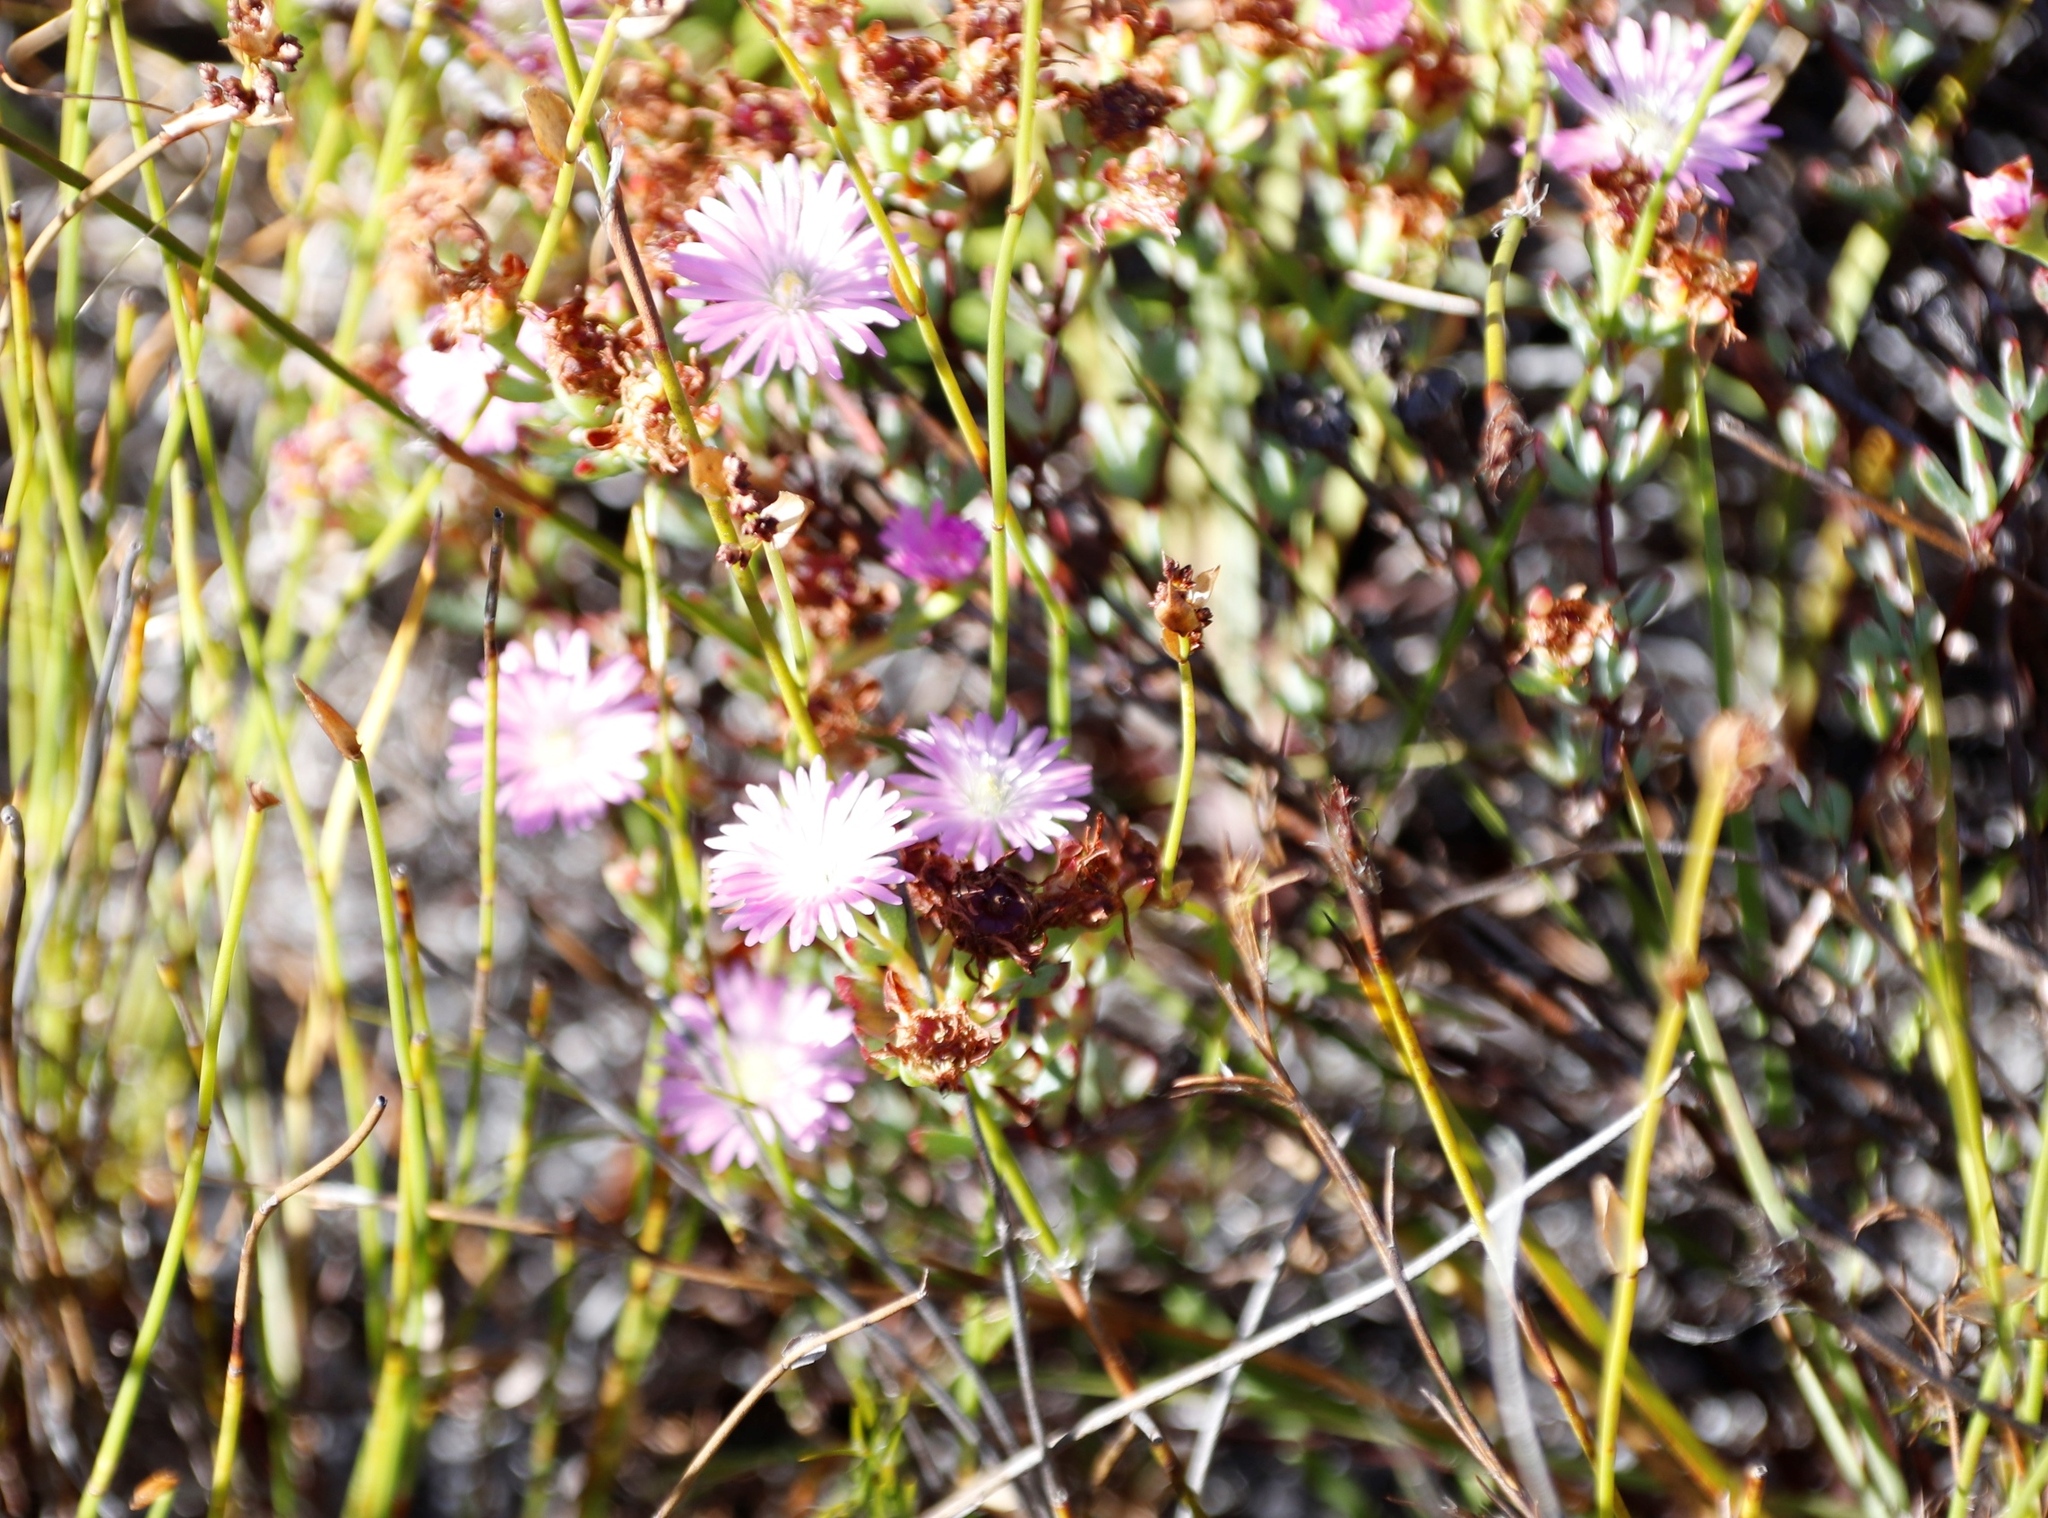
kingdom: Plantae
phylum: Tracheophyta
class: Magnoliopsida
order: Caryophyllales
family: Aizoaceae
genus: Lampranthus
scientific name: Lampranthus glomeratus
